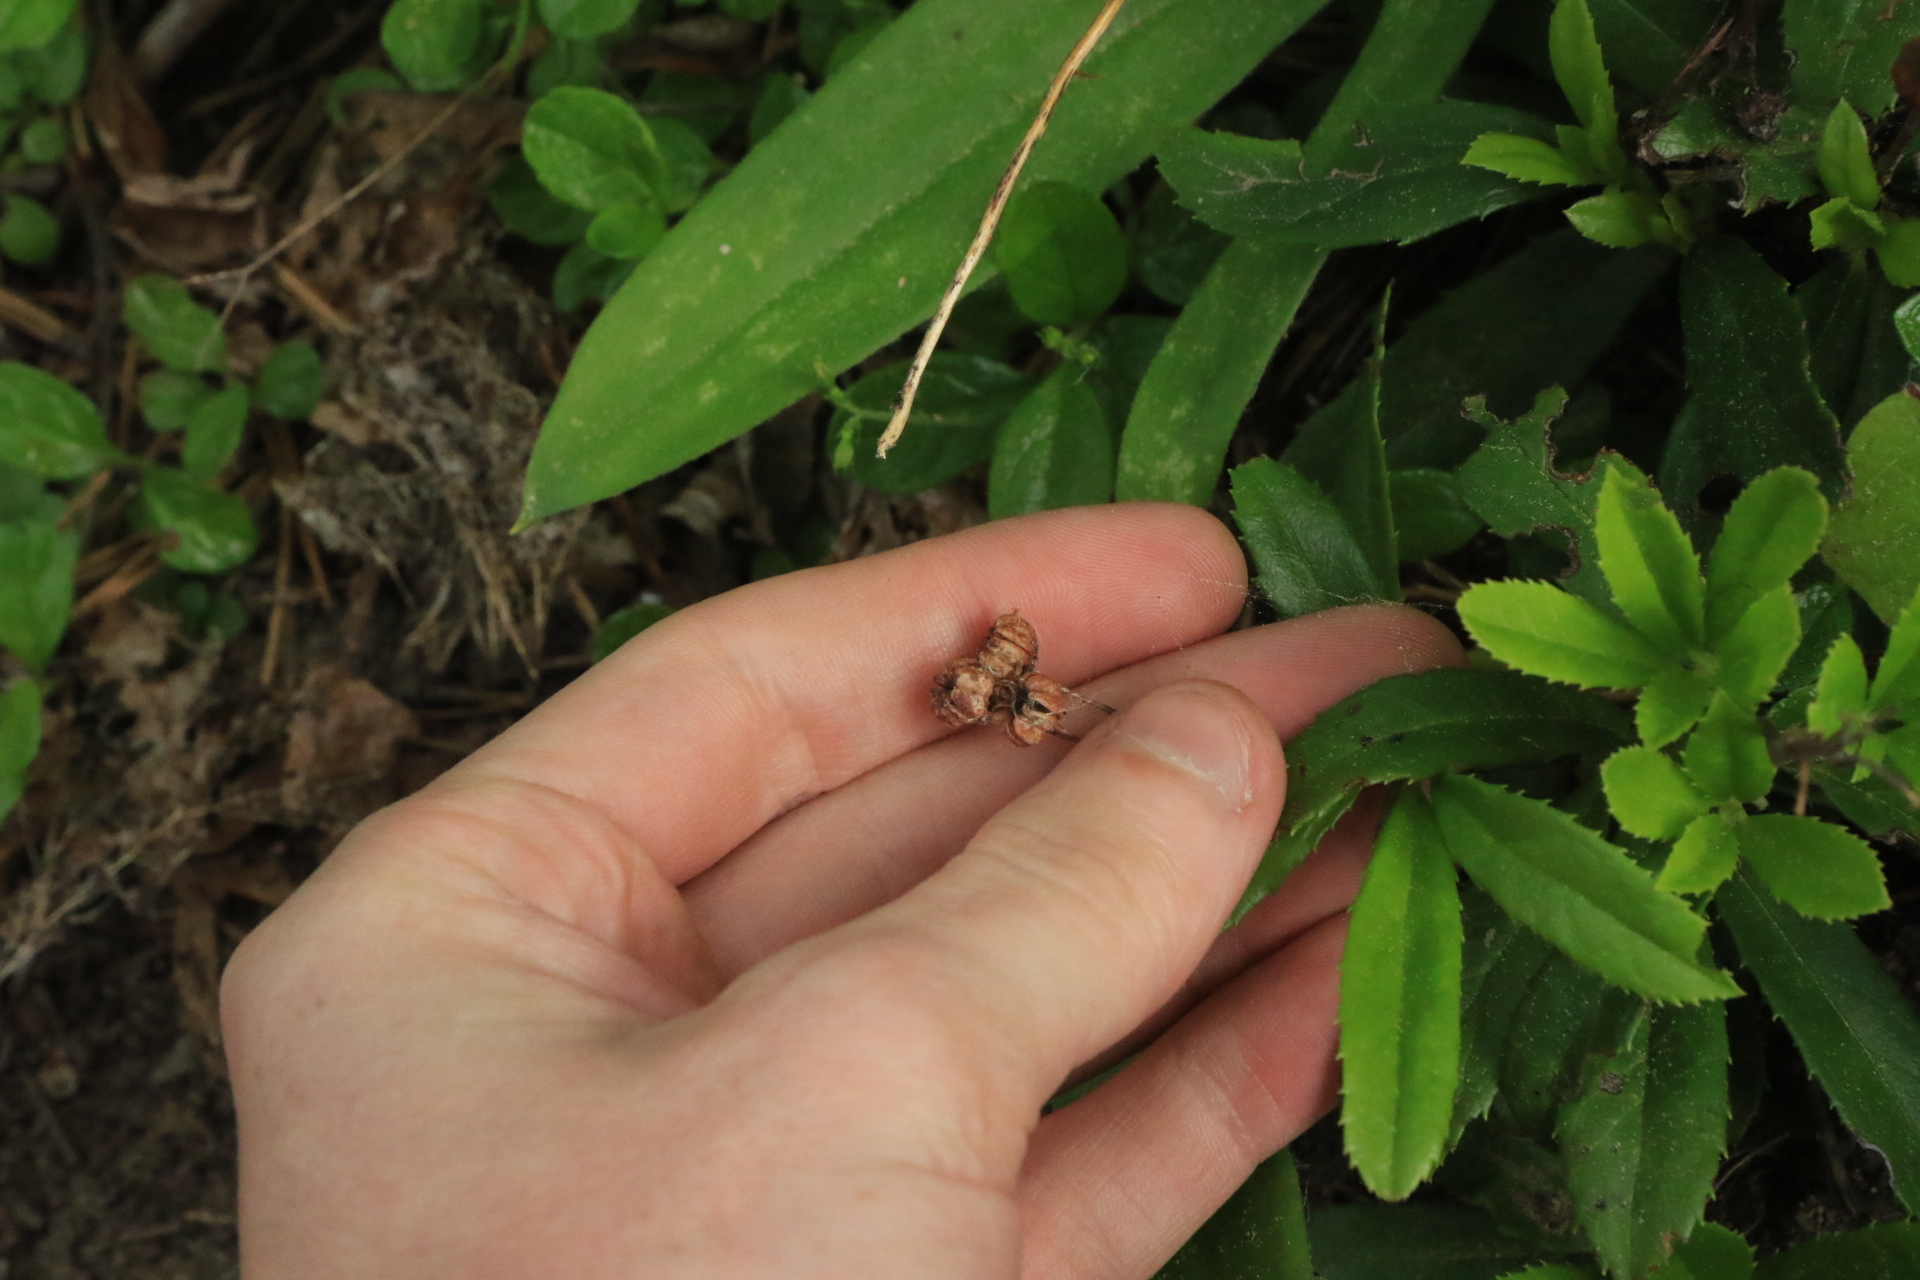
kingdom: Plantae
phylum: Tracheophyta
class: Magnoliopsida
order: Ericales
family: Ericaceae
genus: Chimaphila
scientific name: Chimaphila umbellata
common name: Pipsissewa
